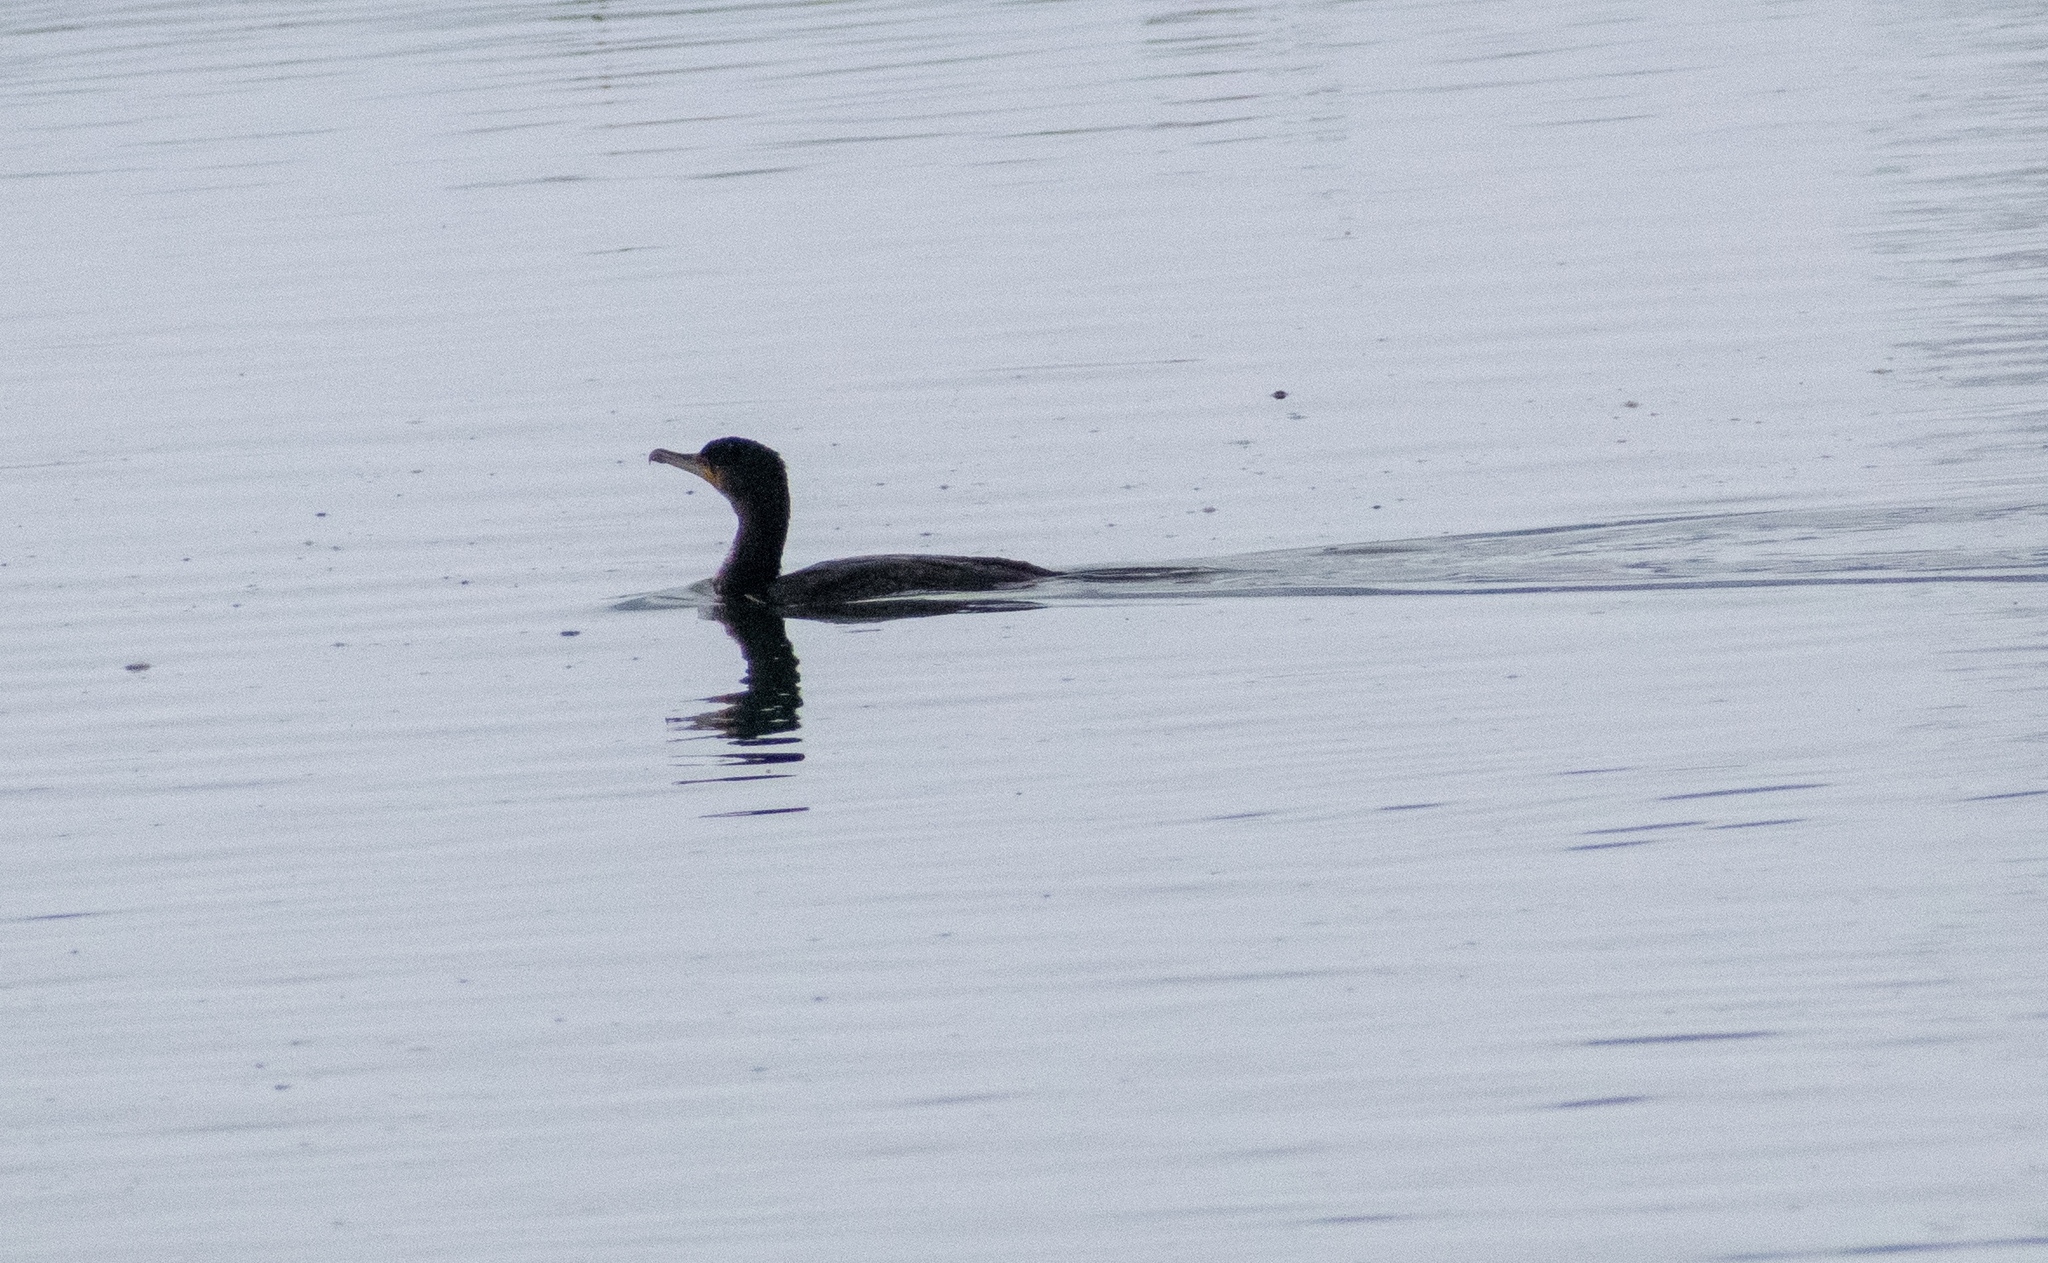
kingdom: Animalia
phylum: Chordata
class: Aves
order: Suliformes
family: Phalacrocoracidae
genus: Phalacrocorax
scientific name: Phalacrocorax carbo
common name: Great cormorant
